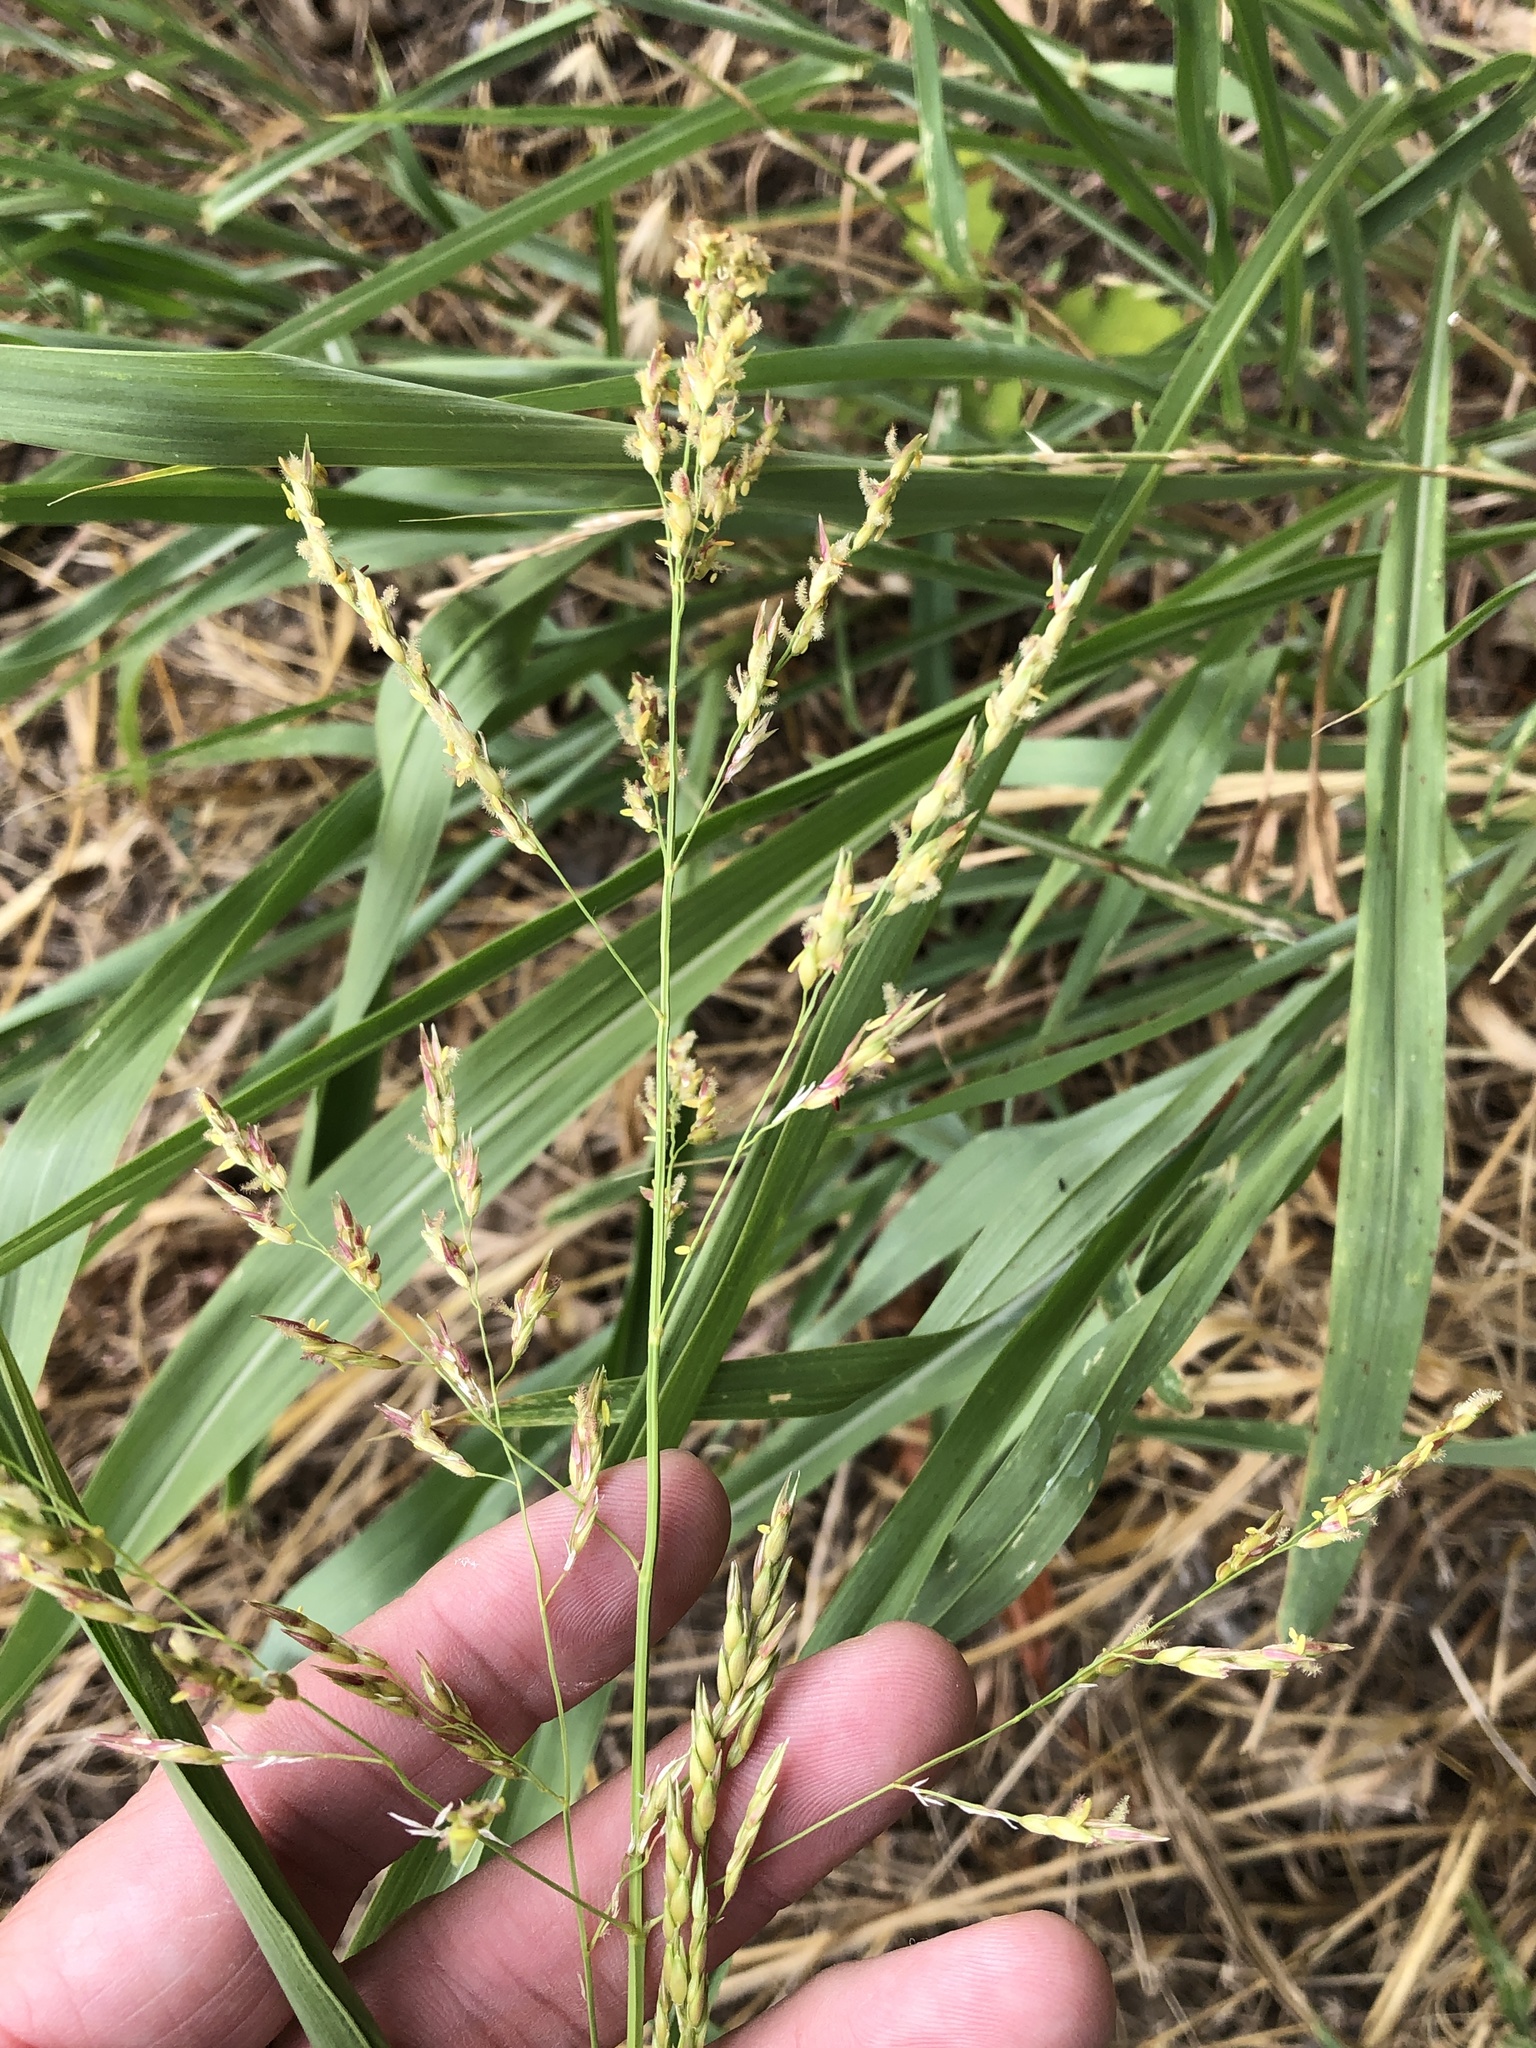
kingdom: Plantae
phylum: Tracheophyta
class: Liliopsida
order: Poales
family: Poaceae
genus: Sorghum
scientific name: Sorghum halepense
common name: Johnson-grass
